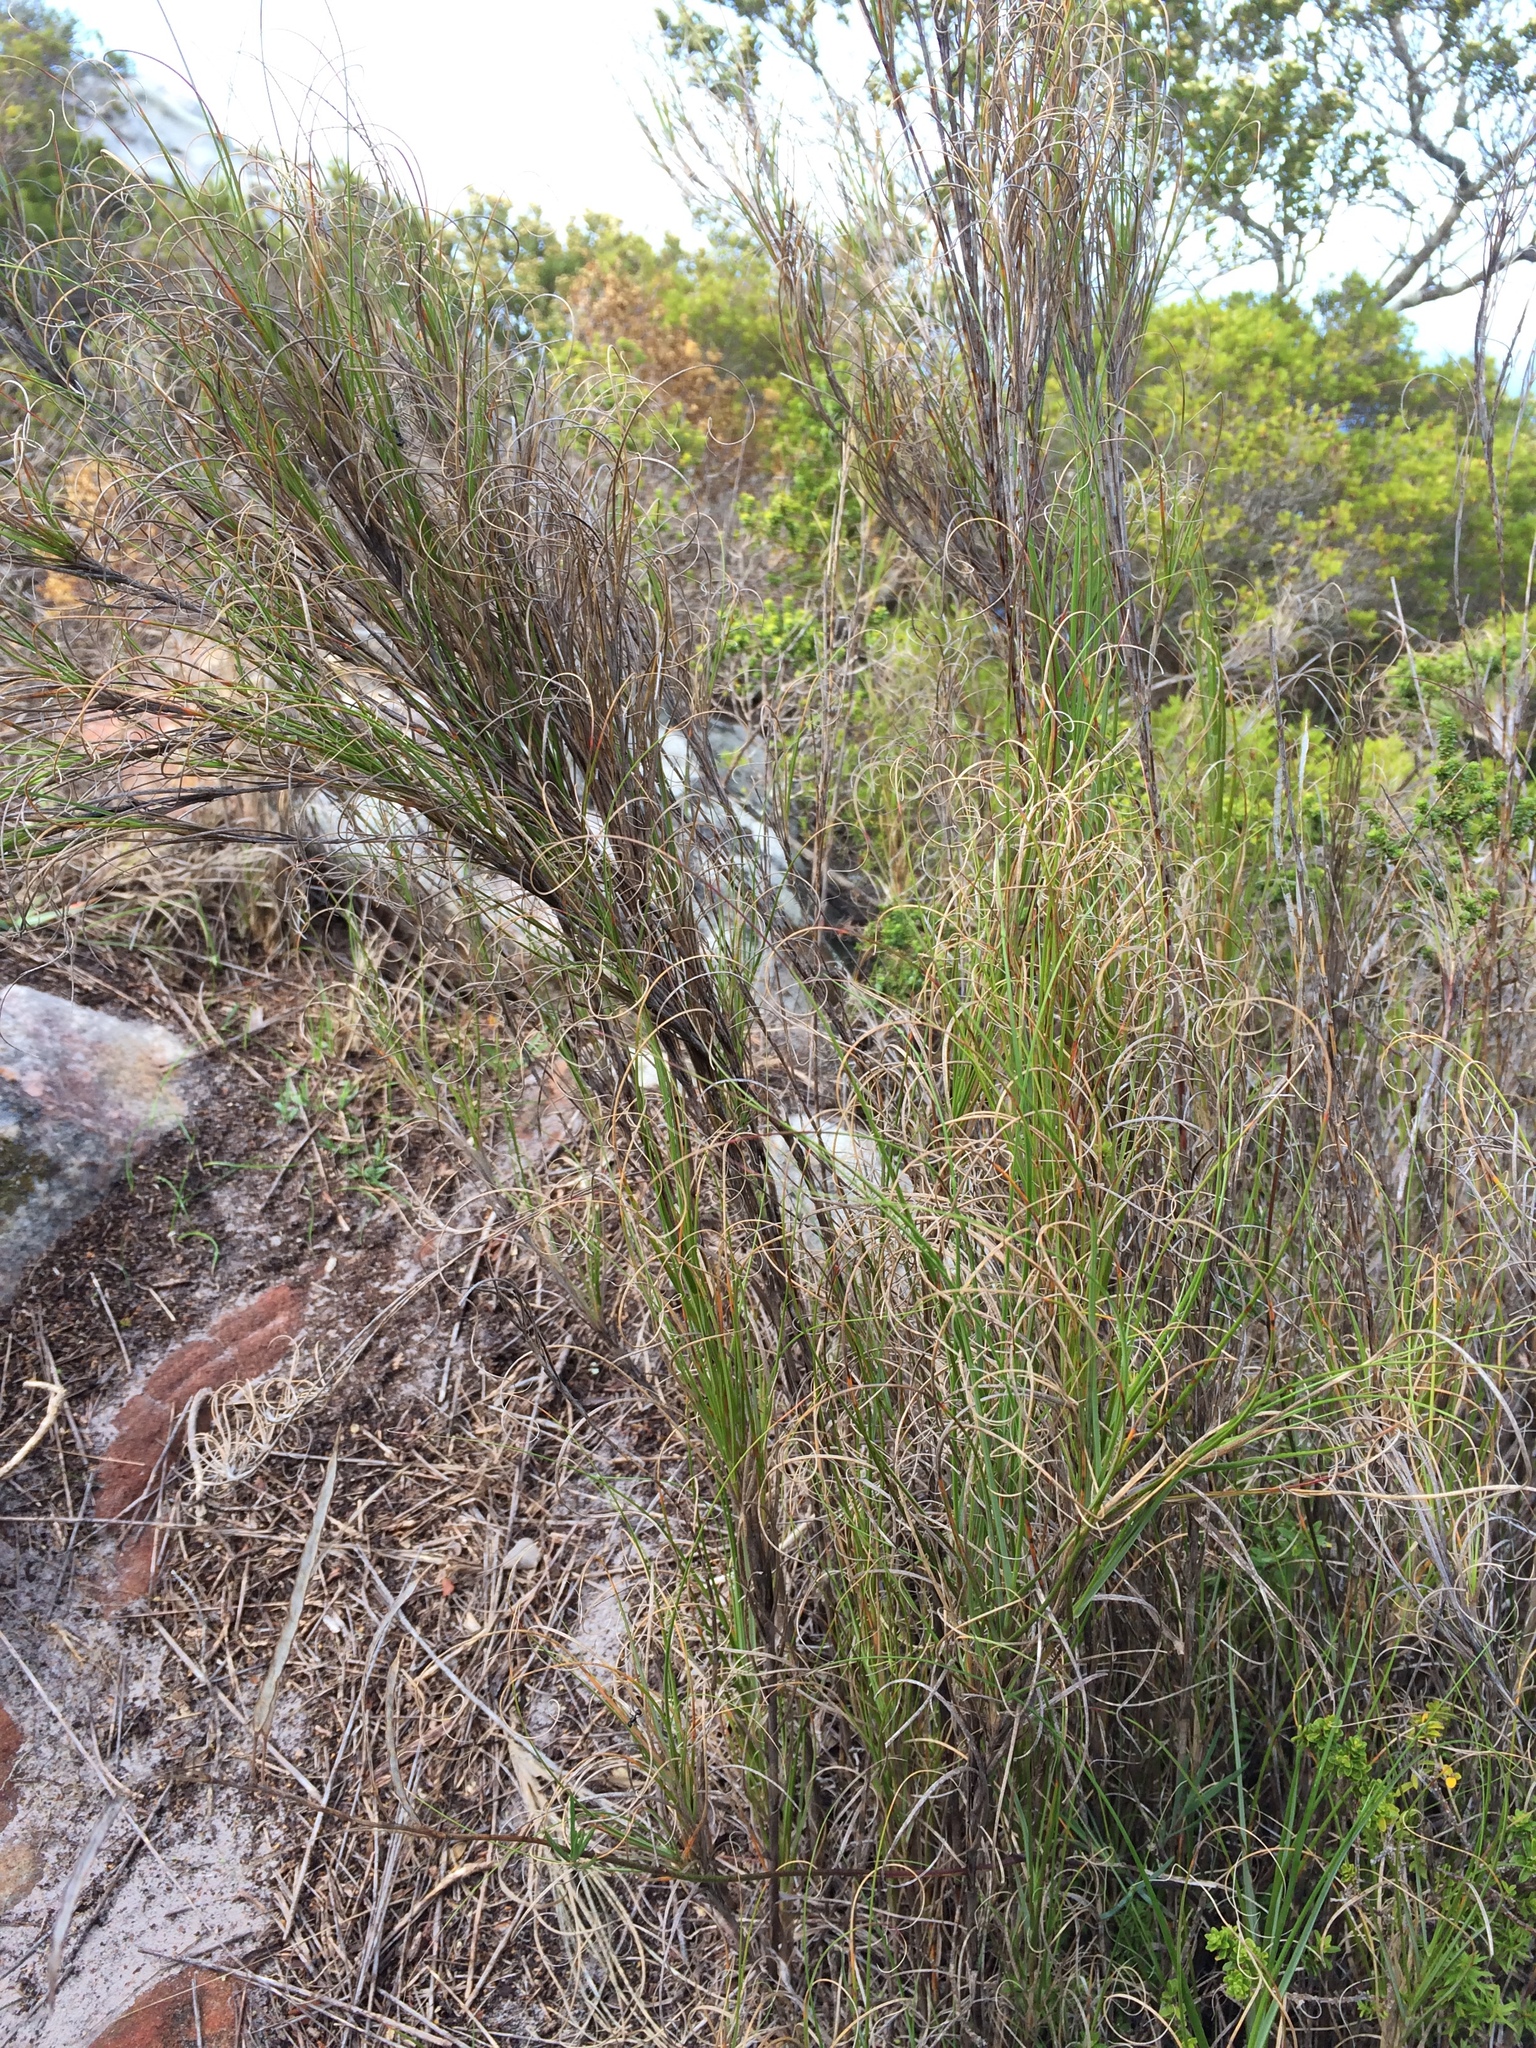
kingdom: Plantae
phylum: Tracheophyta
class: Liliopsida
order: Poales
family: Poaceae
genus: Pseudopentameris
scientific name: Pseudopentameris macrantha
